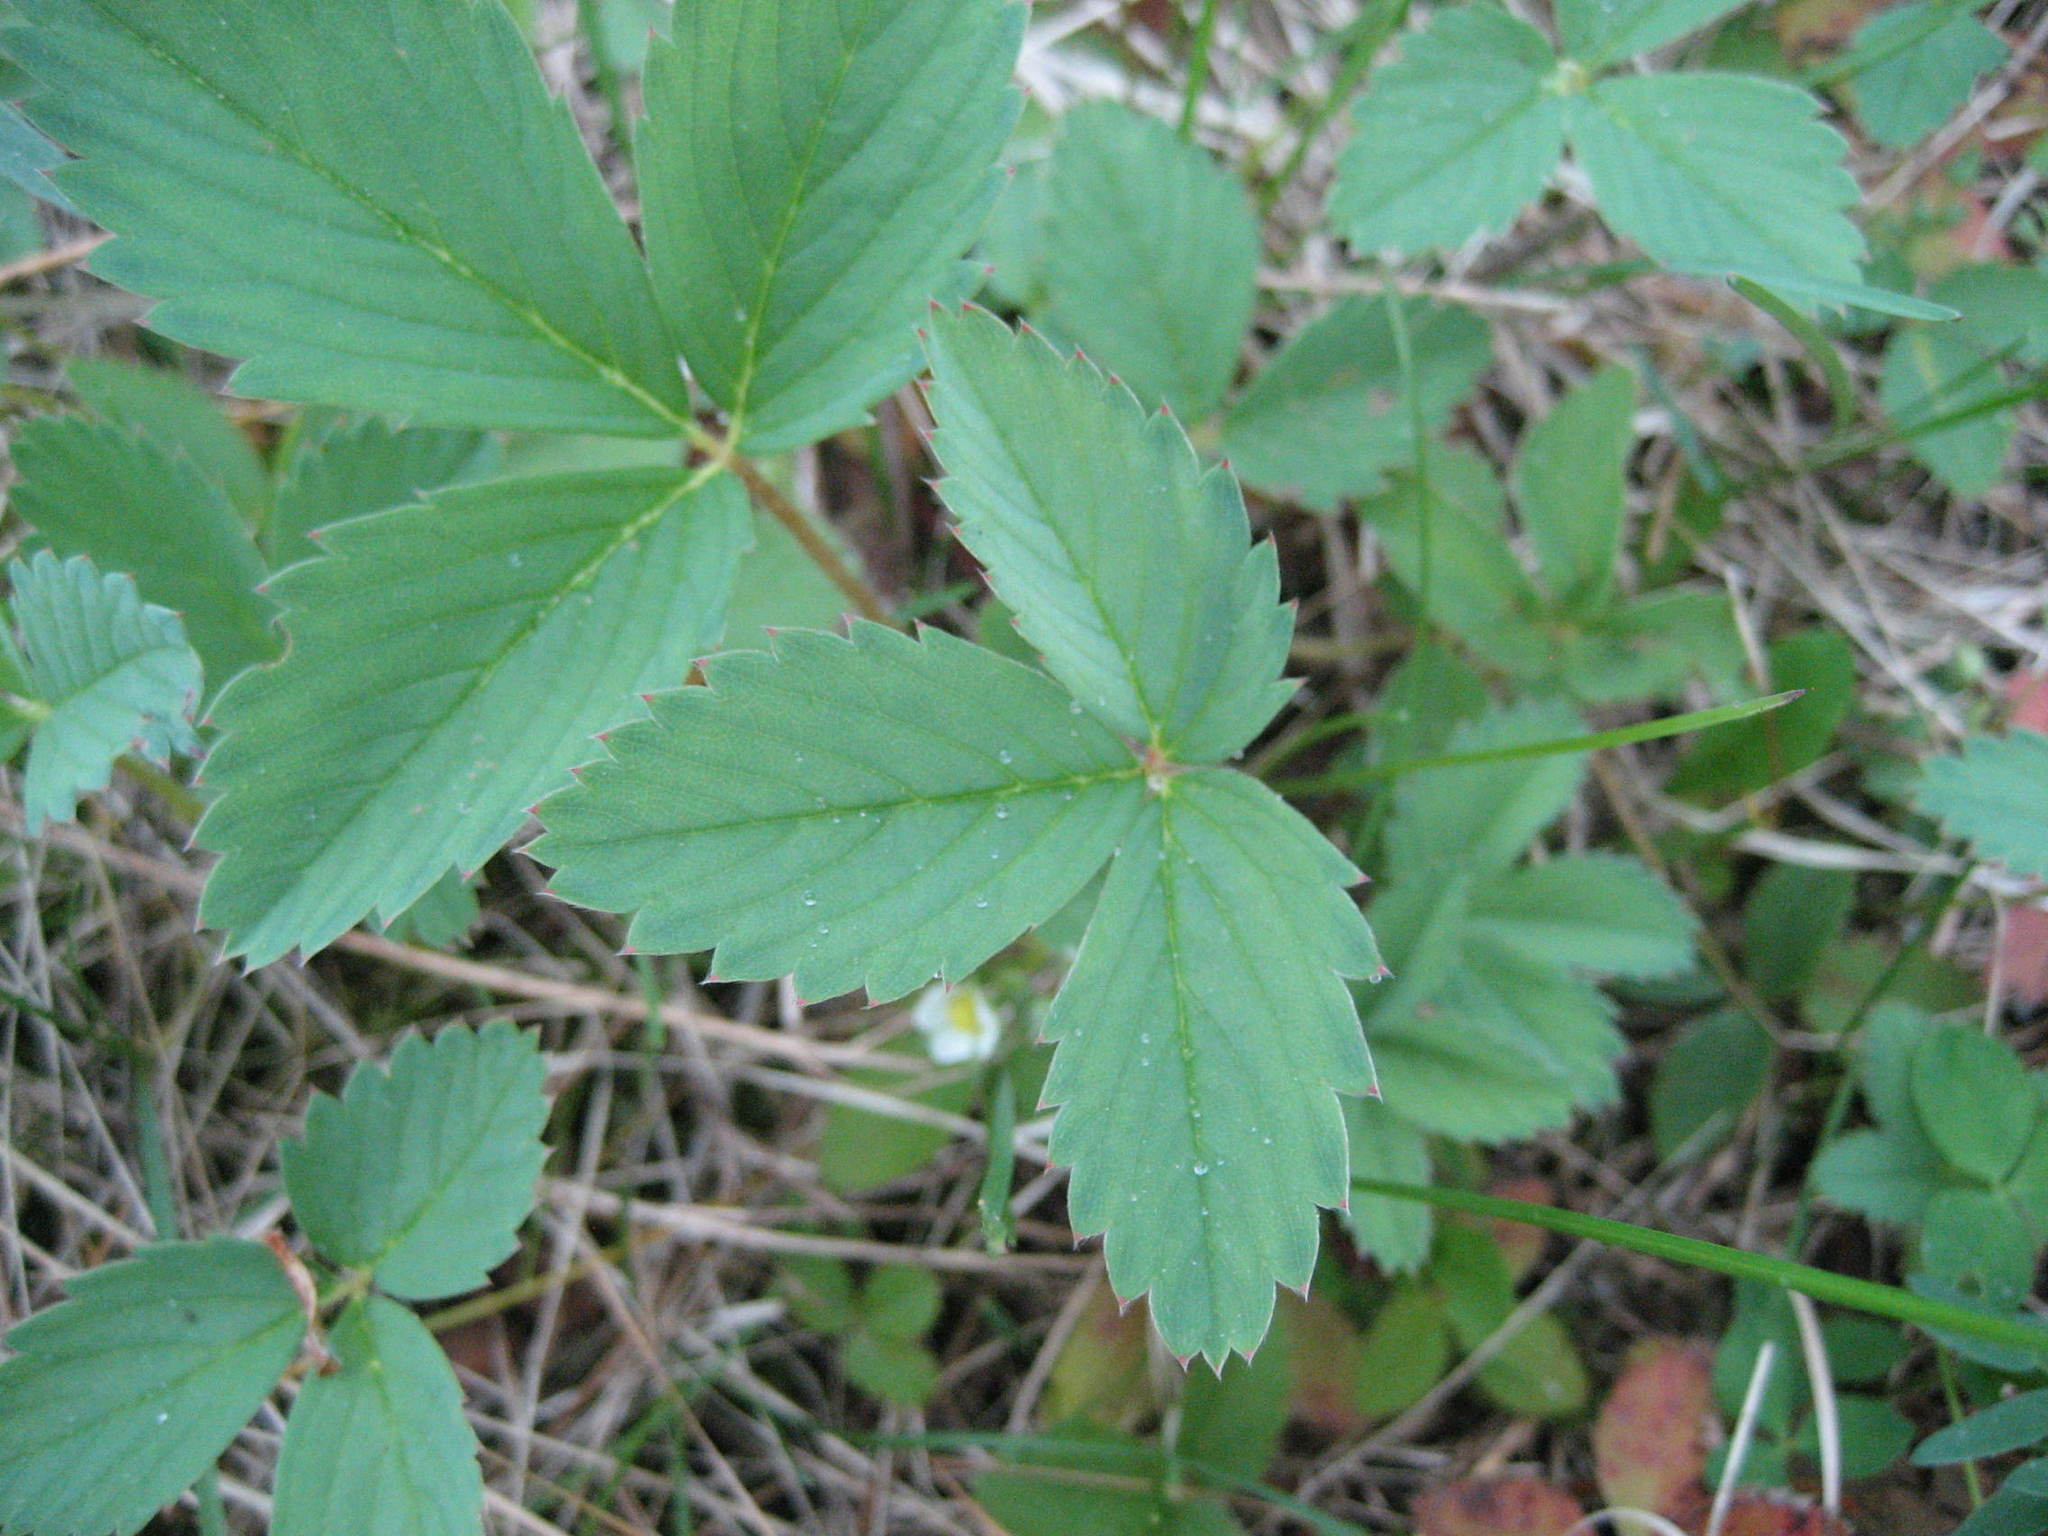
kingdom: Plantae
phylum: Tracheophyta
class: Magnoliopsida
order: Rosales
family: Rosaceae
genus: Fragaria
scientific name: Fragaria virginiana
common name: Thickleaved wild strawberry
